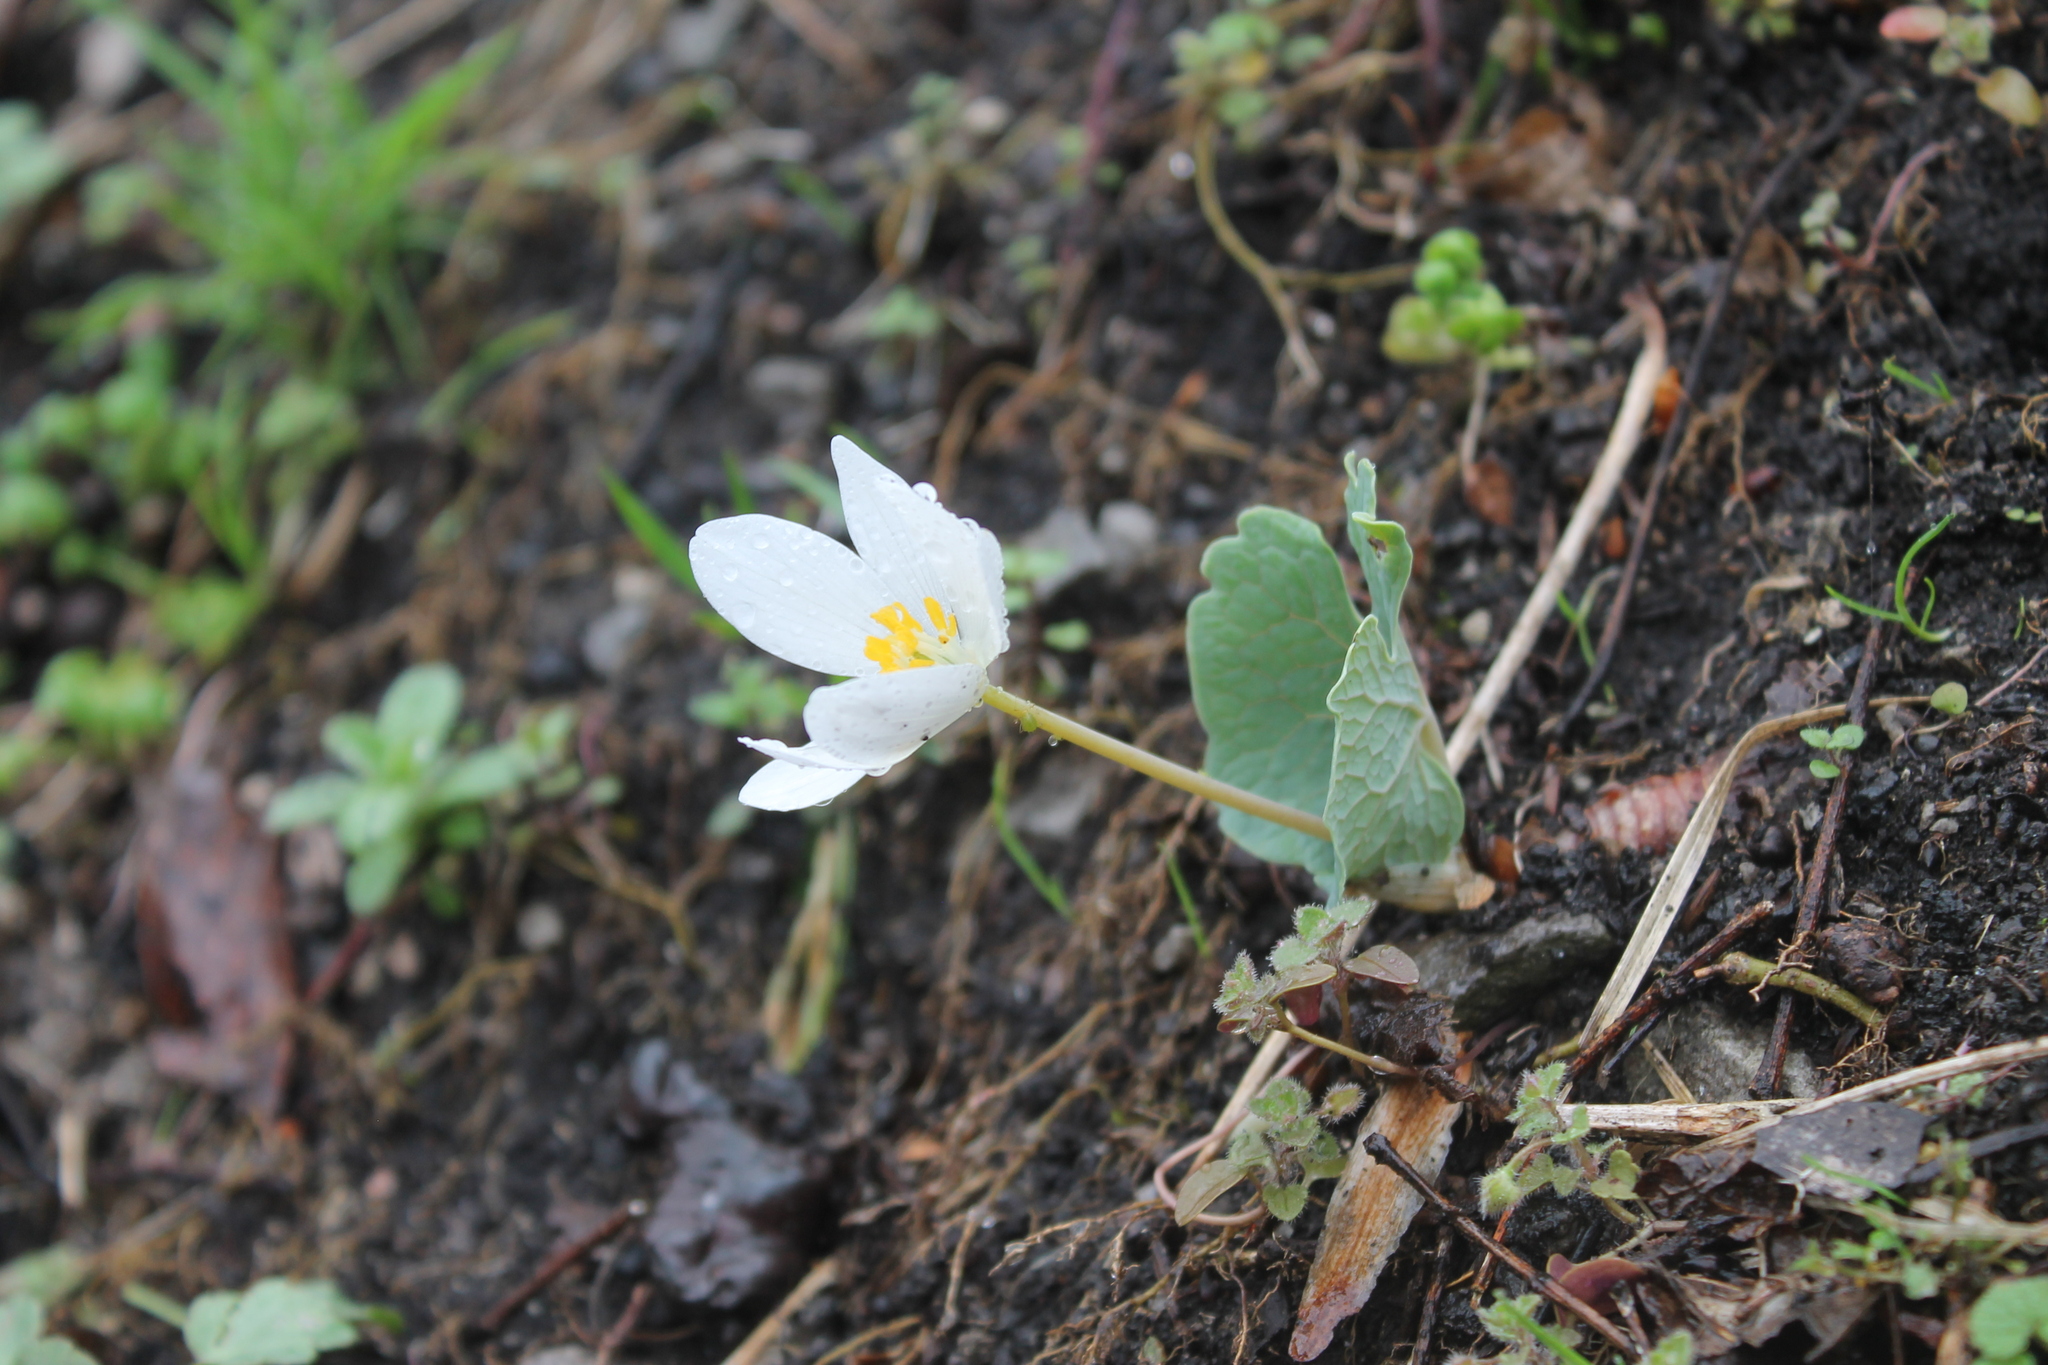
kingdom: Plantae
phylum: Tracheophyta
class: Magnoliopsida
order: Ranunculales
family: Papaveraceae
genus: Sanguinaria
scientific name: Sanguinaria canadensis
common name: Bloodroot
